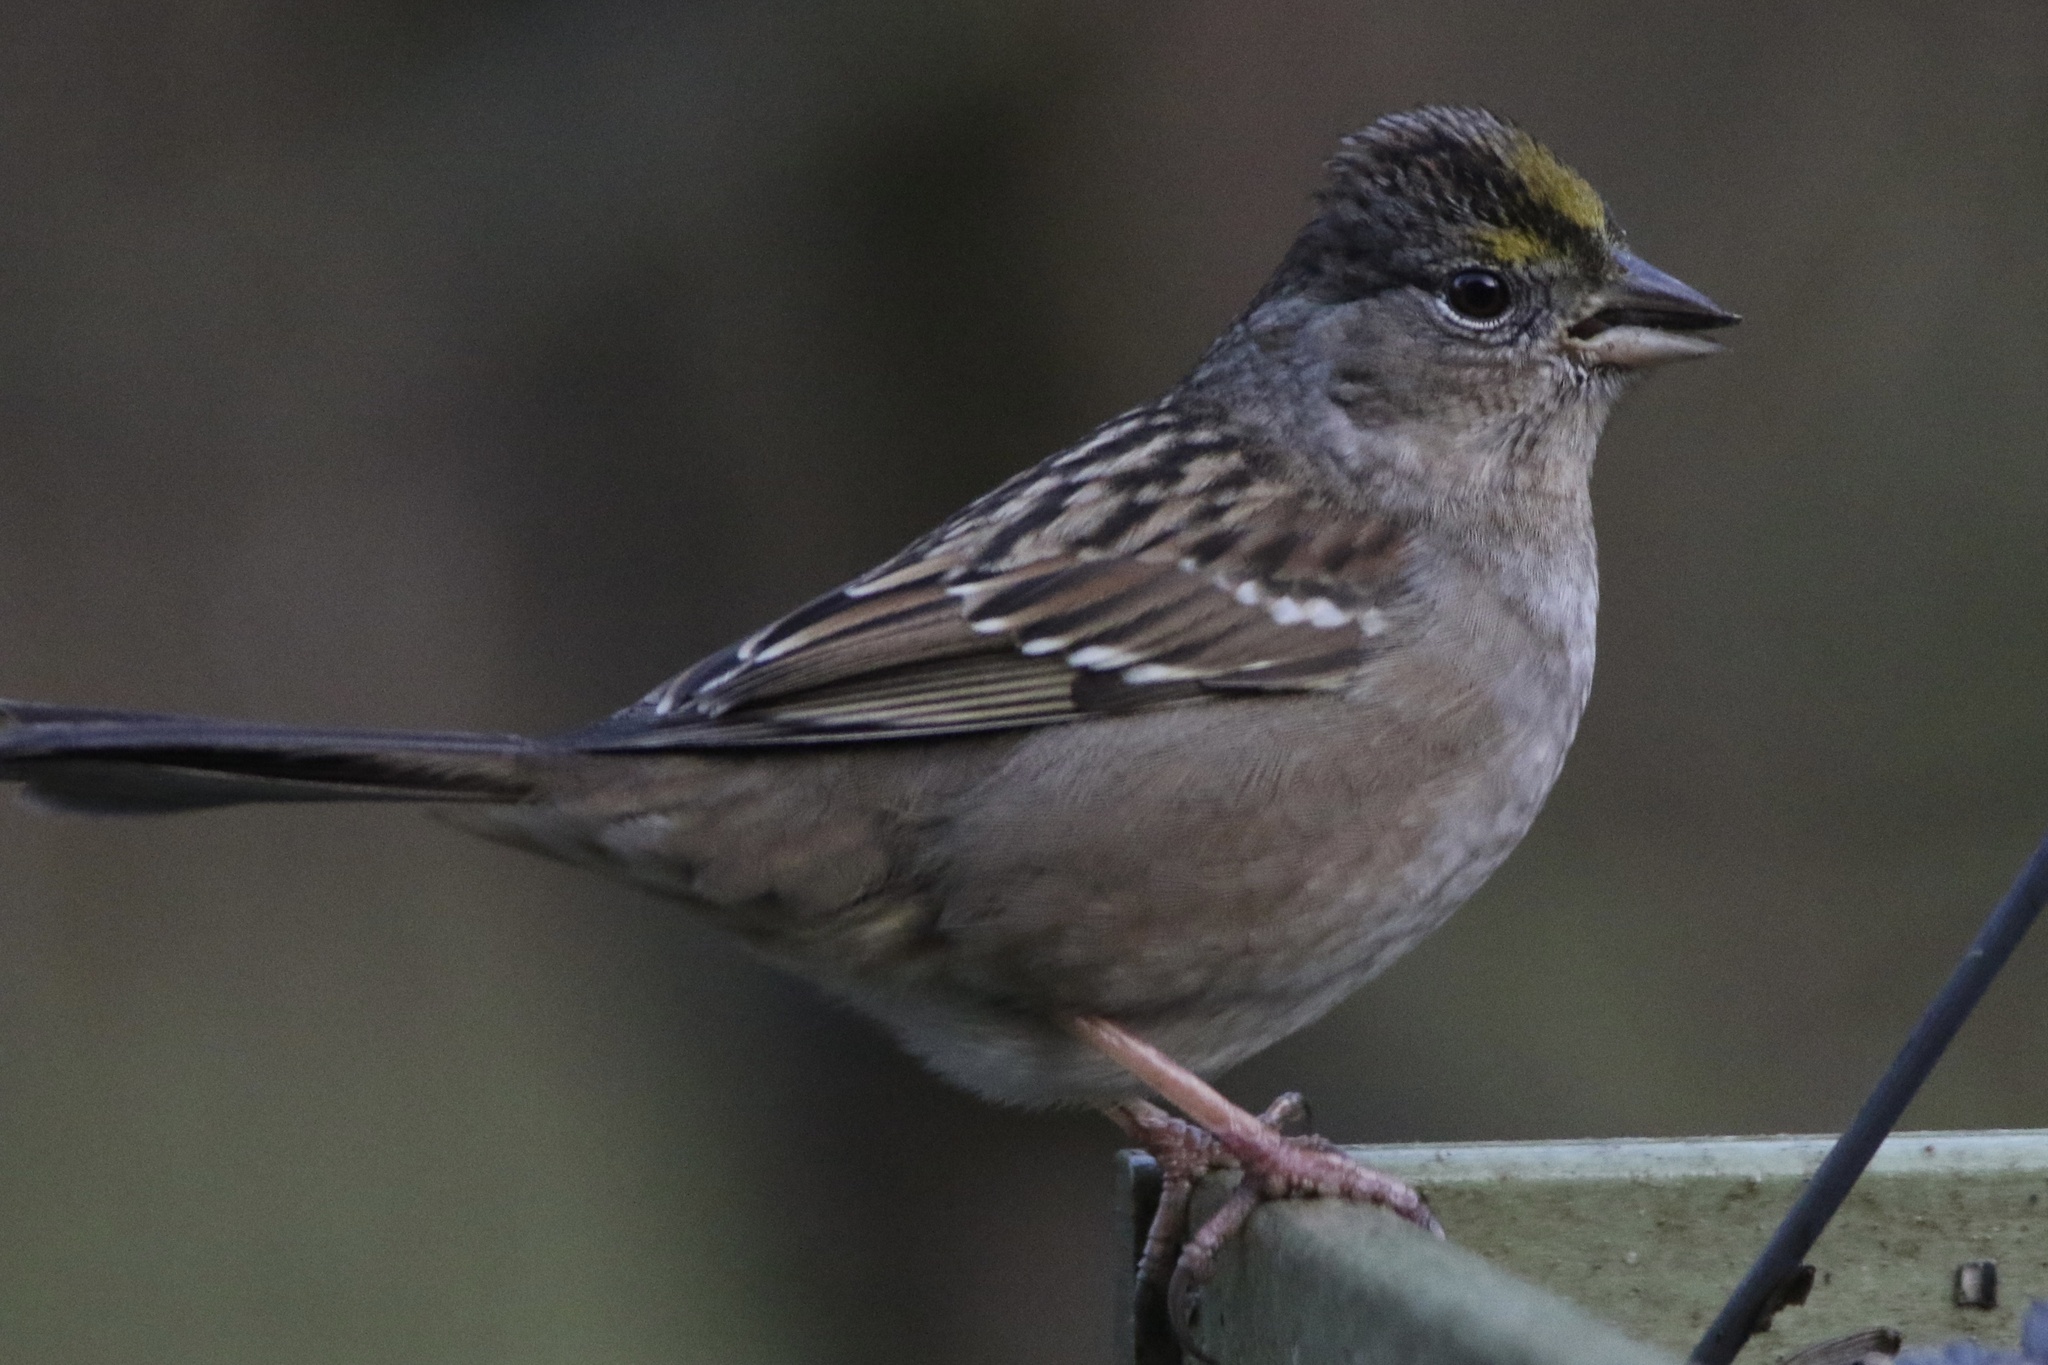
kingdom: Animalia
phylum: Chordata
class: Aves
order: Passeriformes
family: Passerellidae
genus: Zonotrichia
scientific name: Zonotrichia atricapilla
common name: Golden-crowned sparrow
